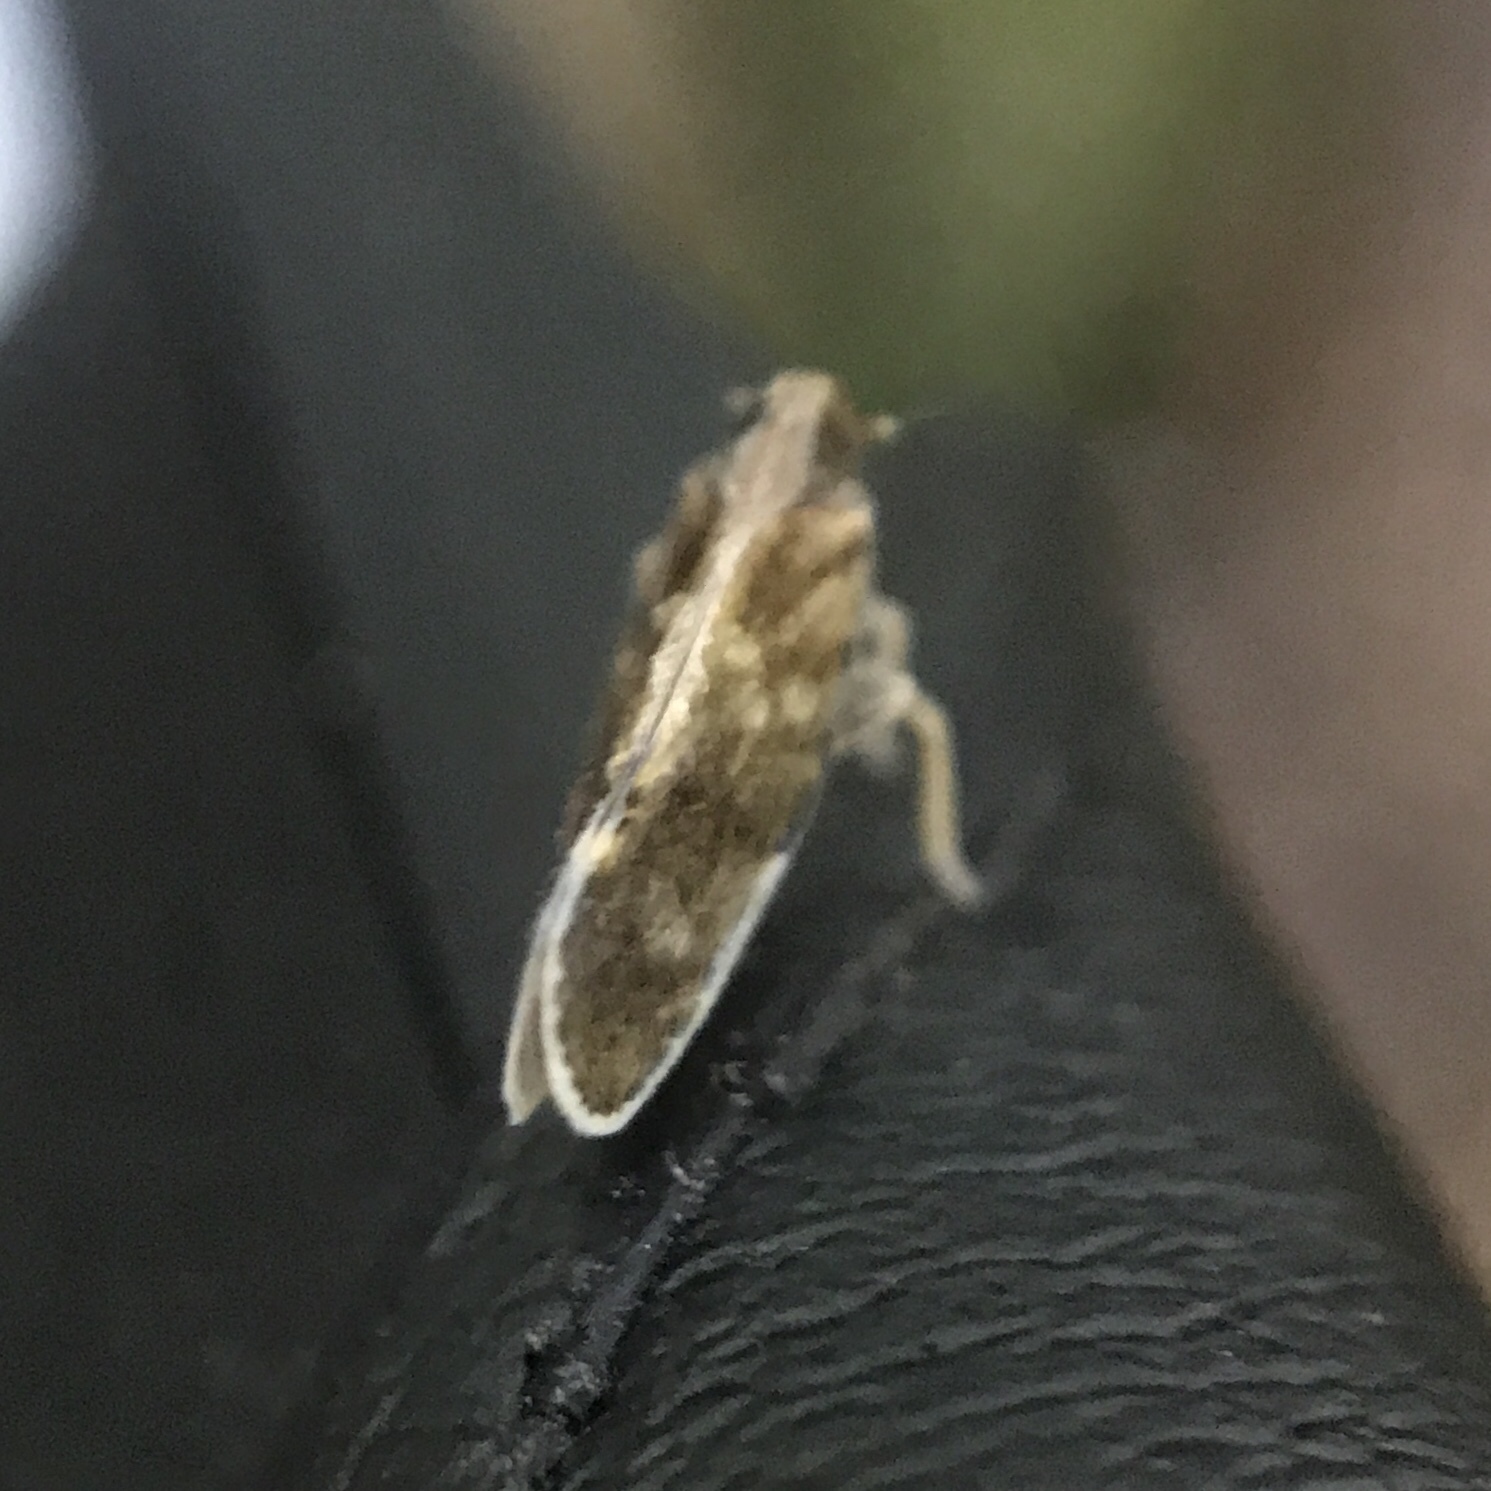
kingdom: Animalia
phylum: Arthropoda
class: Insecta
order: Hemiptera
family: Cixiidae
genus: Pintalia
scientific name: Pintalia vibex
